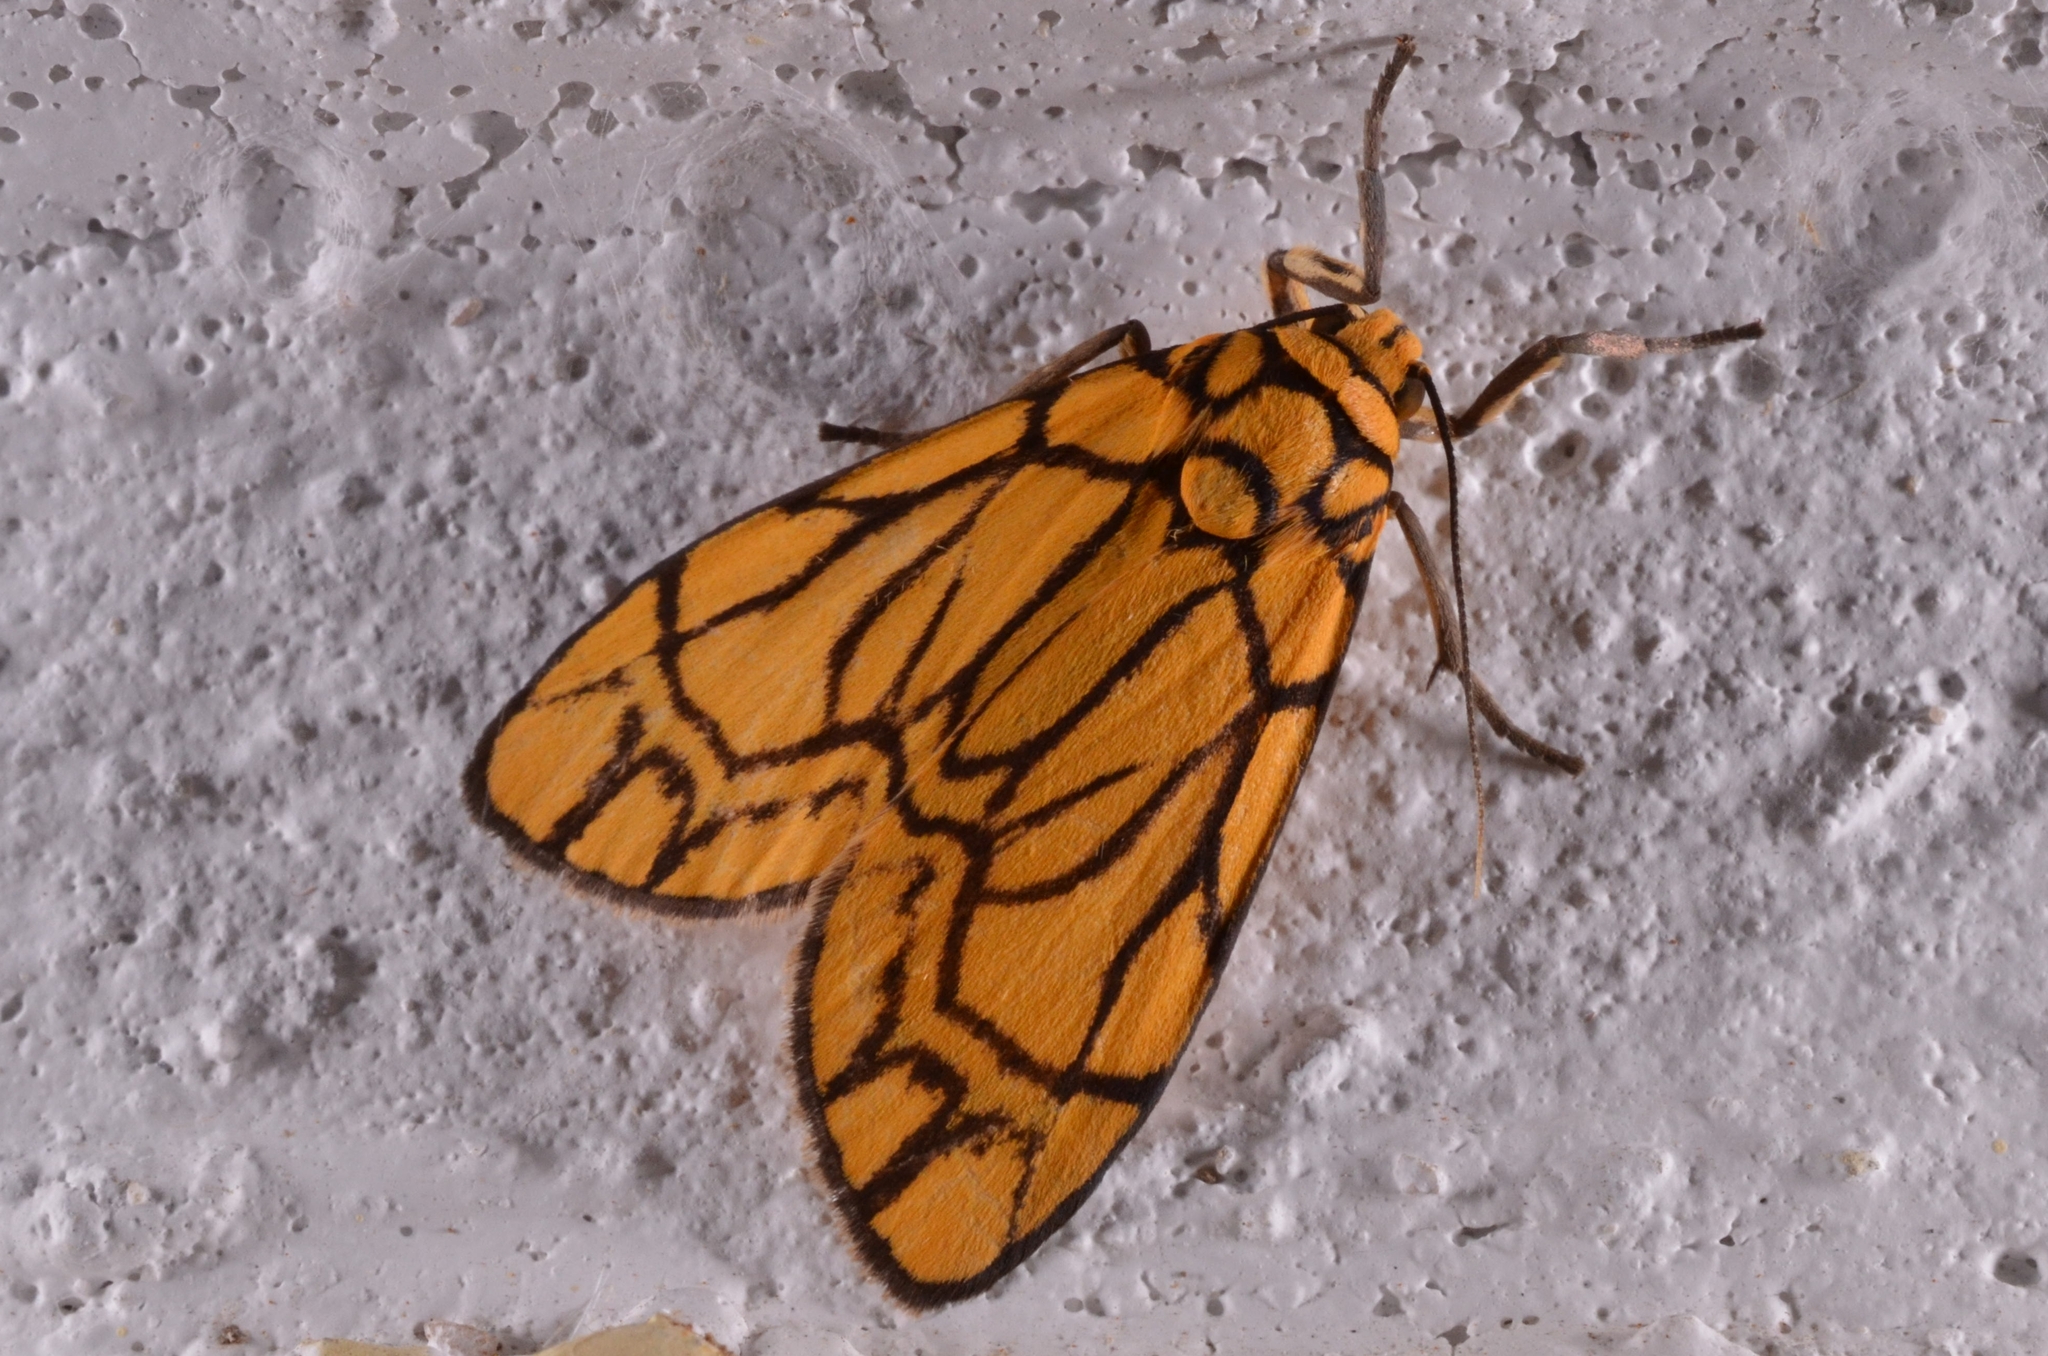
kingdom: Animalia
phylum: Arthropoda
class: Insecta
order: Lepidoptera
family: Erebidae
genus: Cyme
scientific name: Cyme euprepioides
